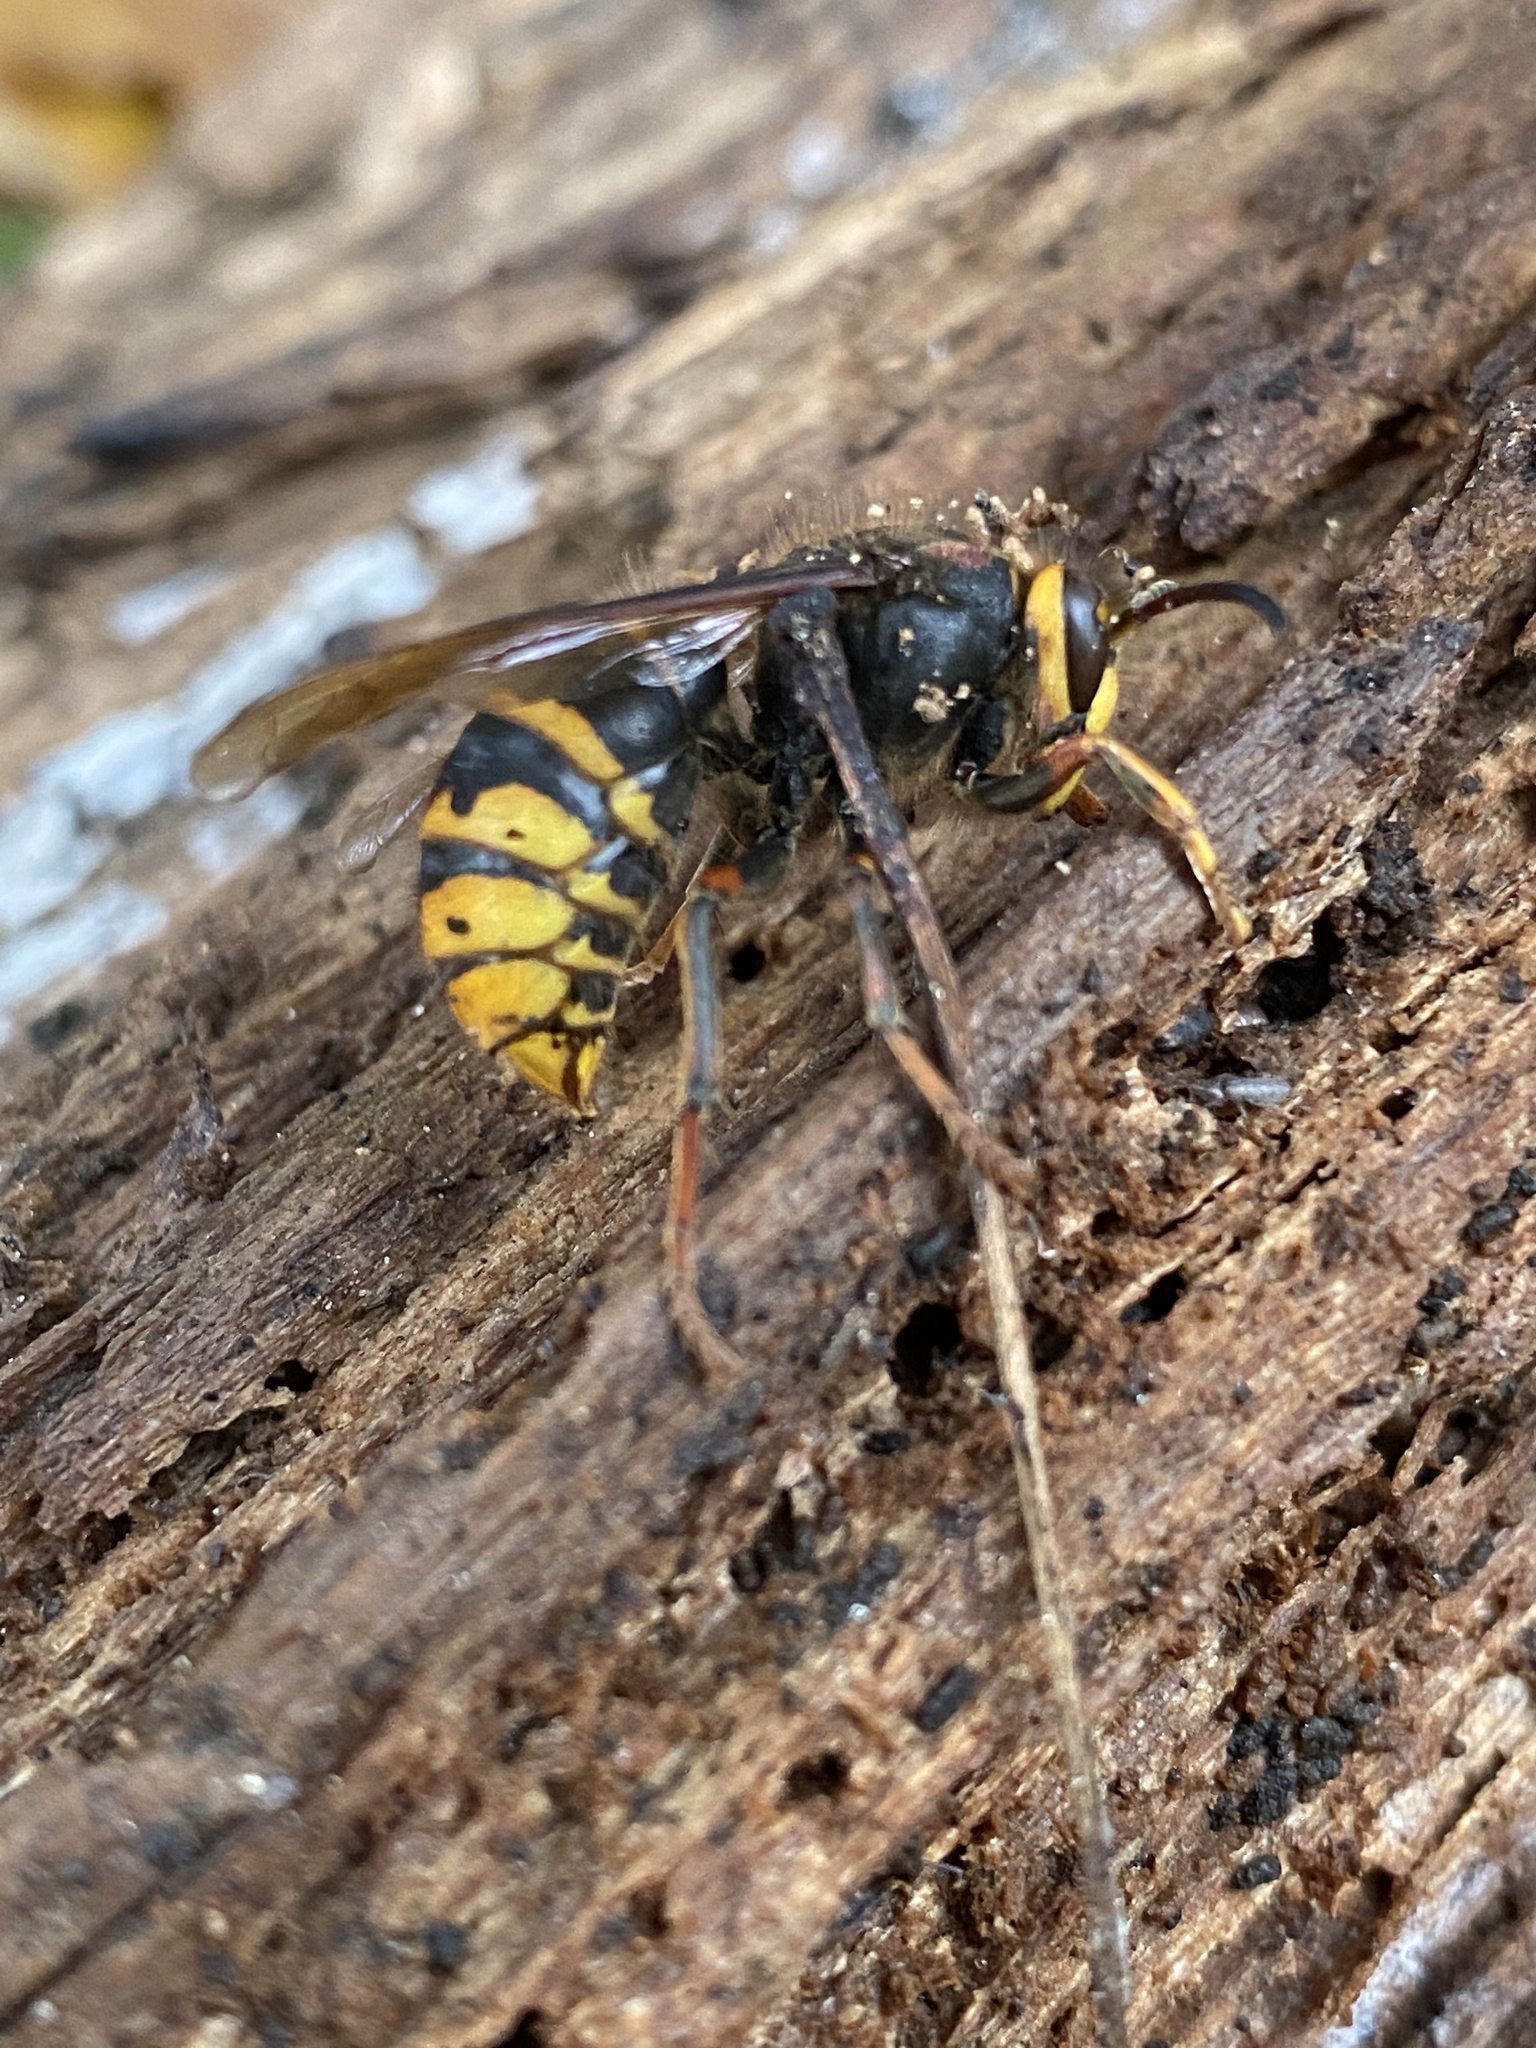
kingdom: Animalia
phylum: Arthropoda
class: Insecta
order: Hymenoptera
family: Vespidae
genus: Dolichovespula
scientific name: Dolichovespula media
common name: Median wasp
